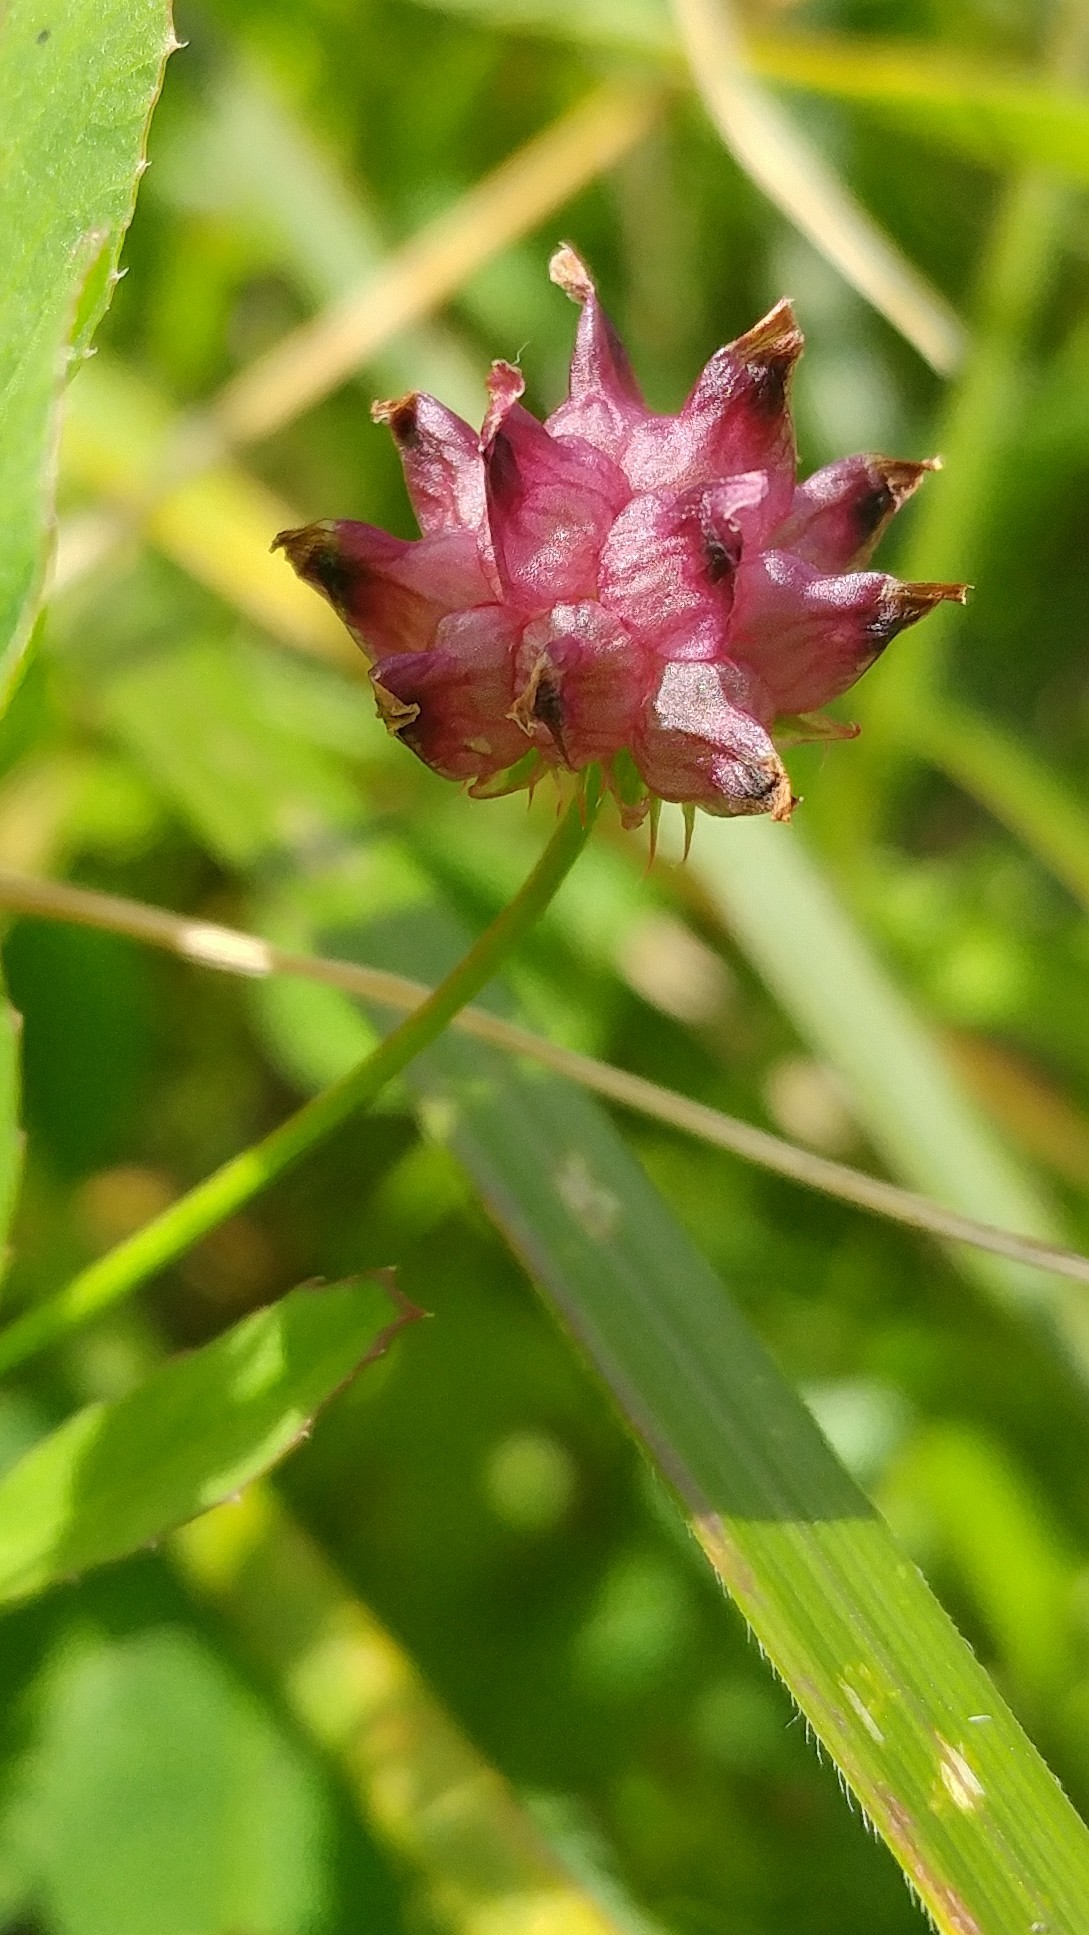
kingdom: Plantae
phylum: Tracheophyta
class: Magnoliopsida
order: Fabales
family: Fabaceae
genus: Trifolium
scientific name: Trifolium depauperatum
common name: Poverty clover
